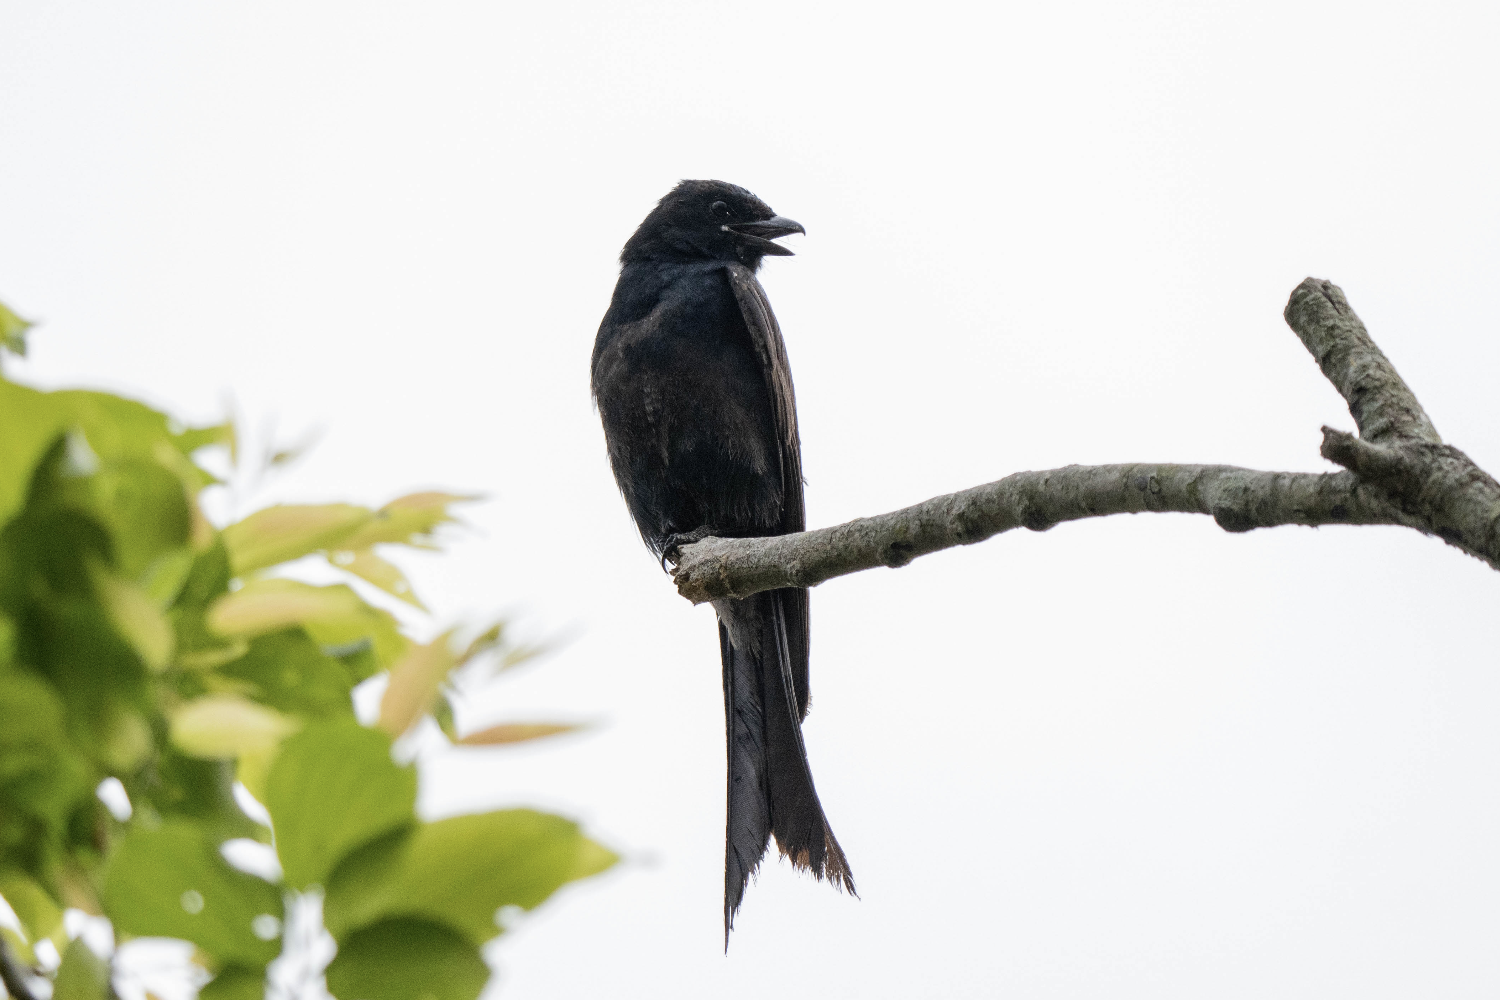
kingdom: Animalia
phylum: Chordata
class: Aves
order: Passeriformes
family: Dicruridae
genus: Dicrurus
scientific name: Dicrurus macrocercus
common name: Black drongo
